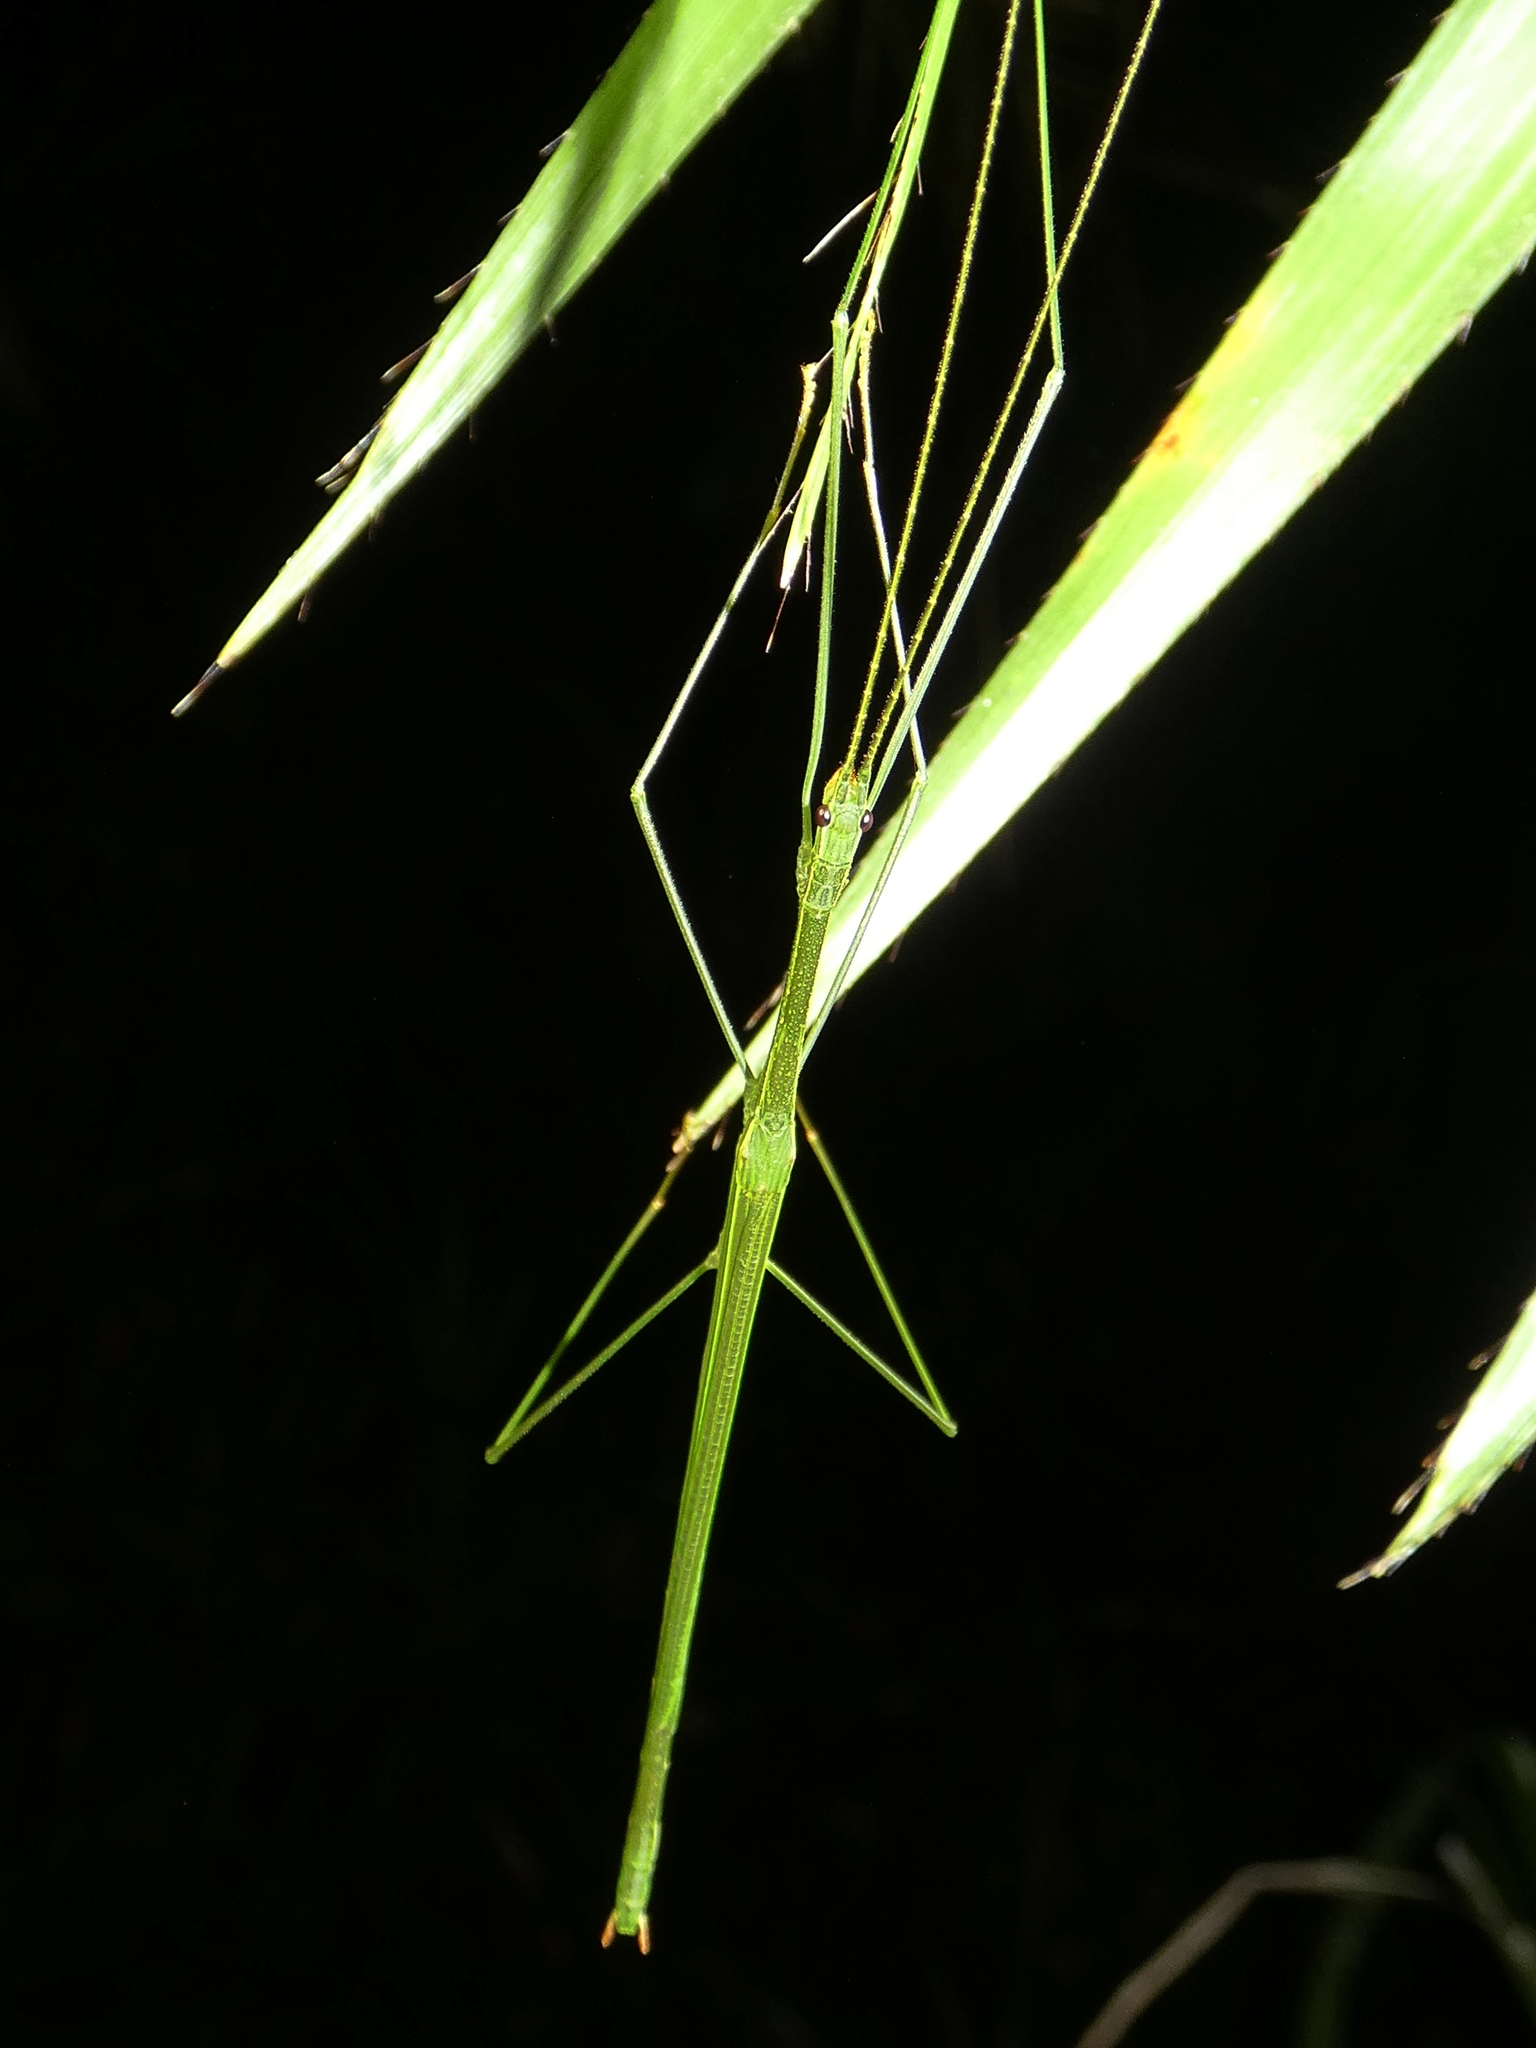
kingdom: Animalia
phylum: Arthropoda
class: Insecta
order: Phasmida
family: Lonchodidae
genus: Sipyloidea
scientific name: Sipyloidea rentzi
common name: Rentz's sipyloidea stick-insect
